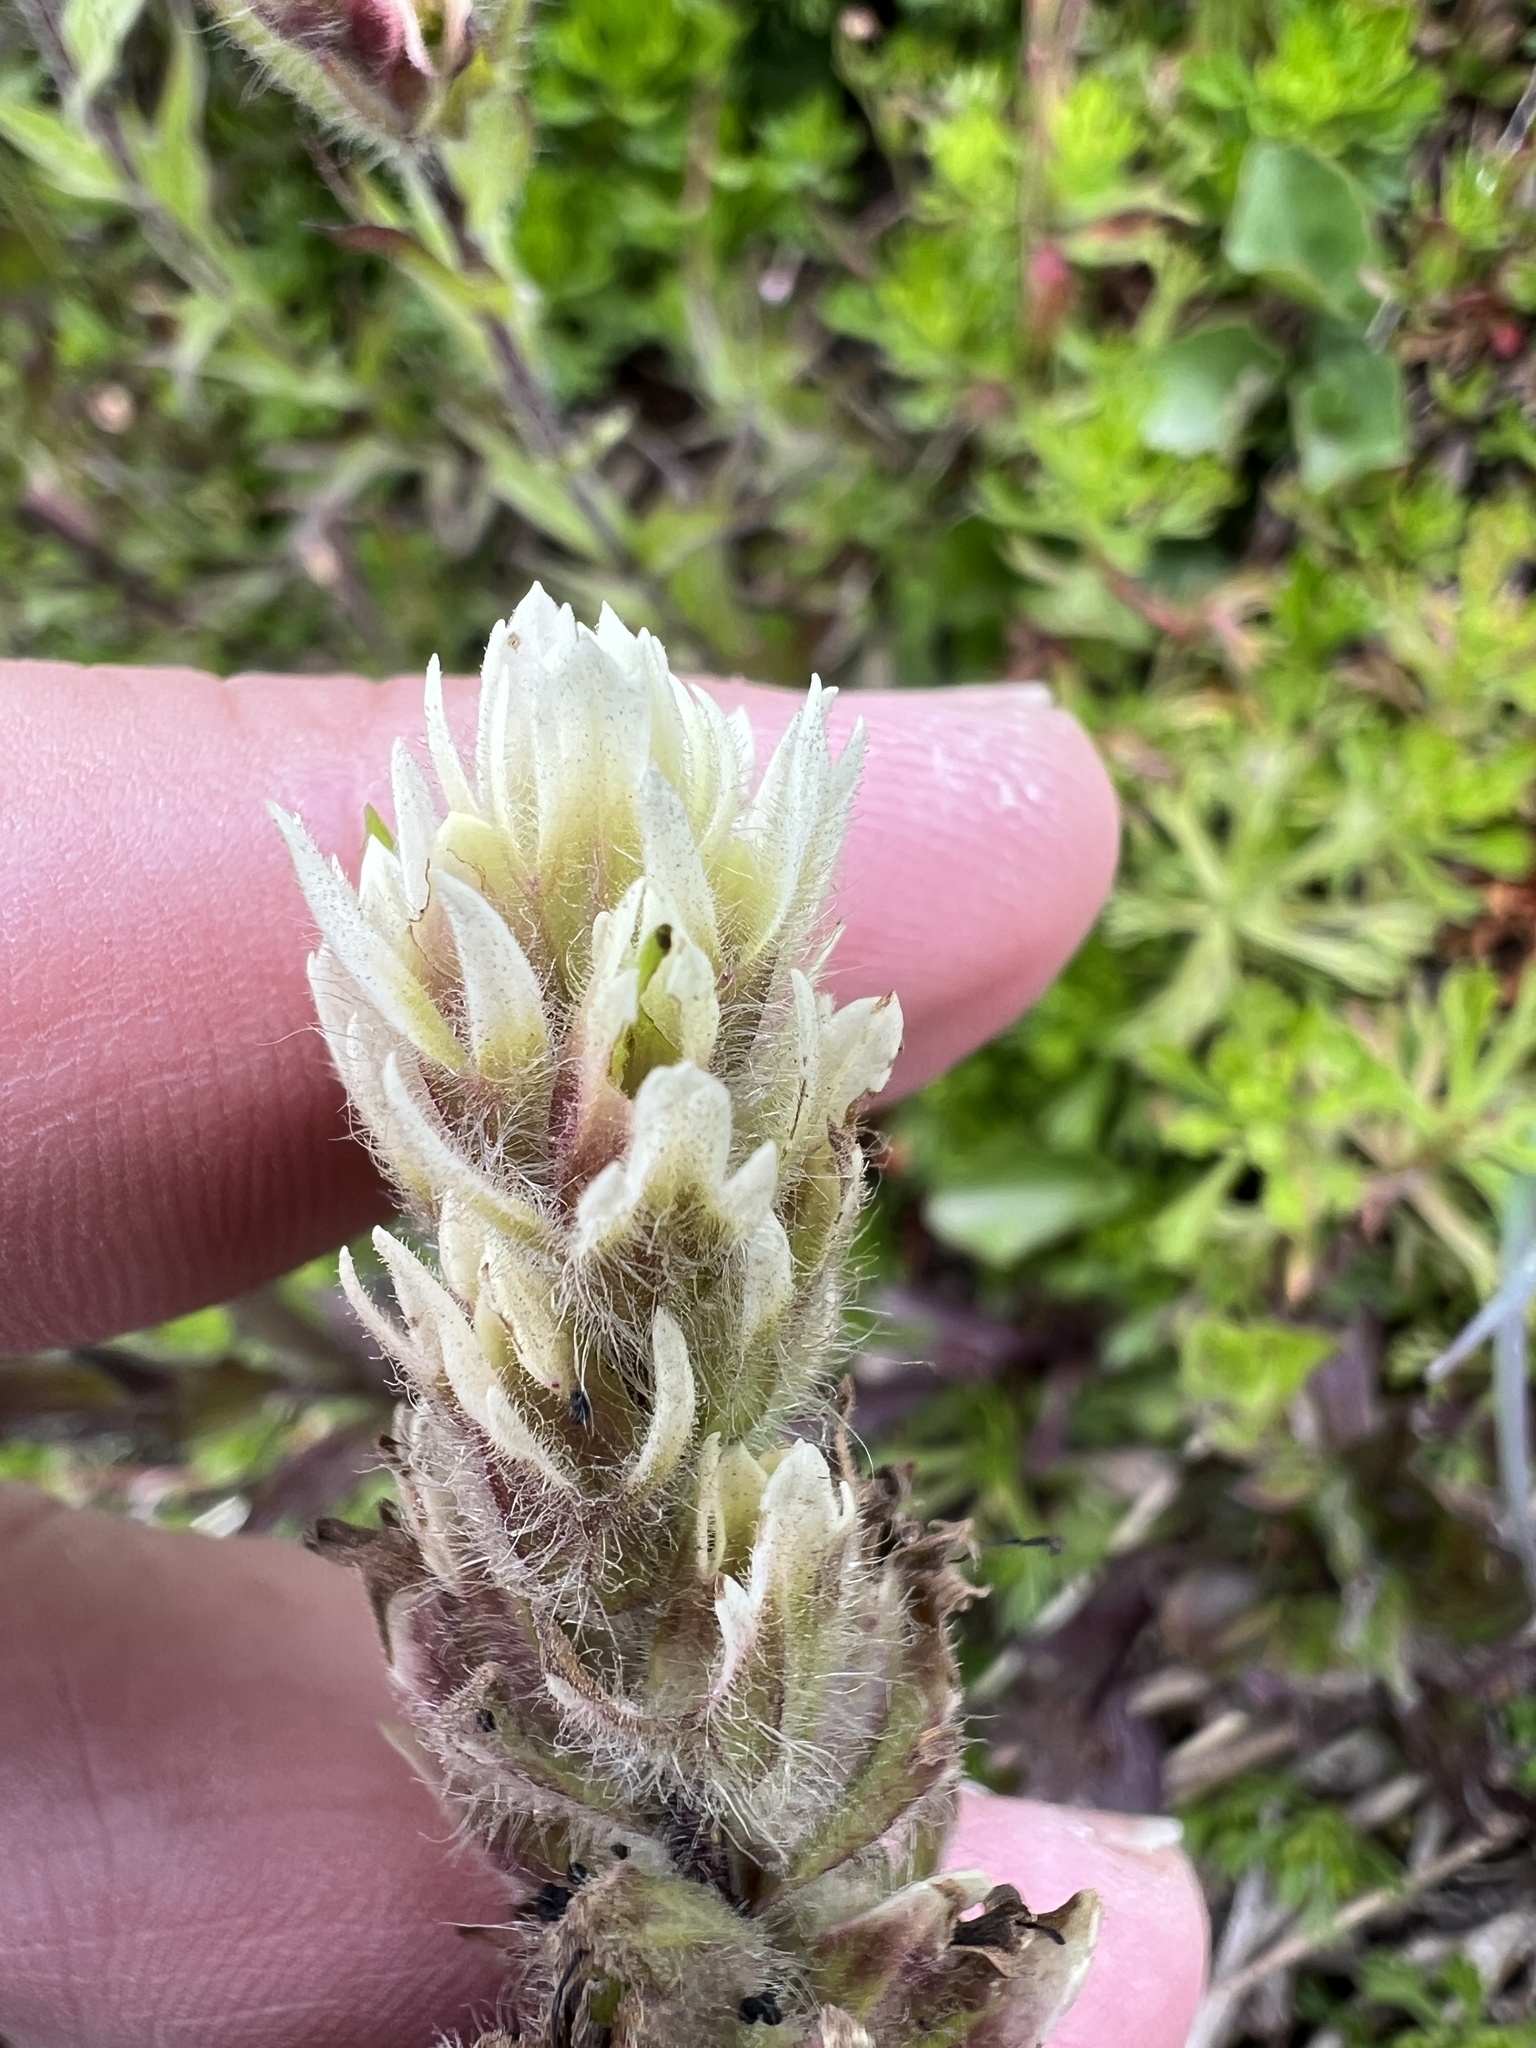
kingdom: Plantae
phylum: Tracheophyta
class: Magnoliopsida
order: Lamiales
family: Orobanchaceae
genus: Castilleja
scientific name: Castilleja parviflora
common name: Mountain paintbrush
